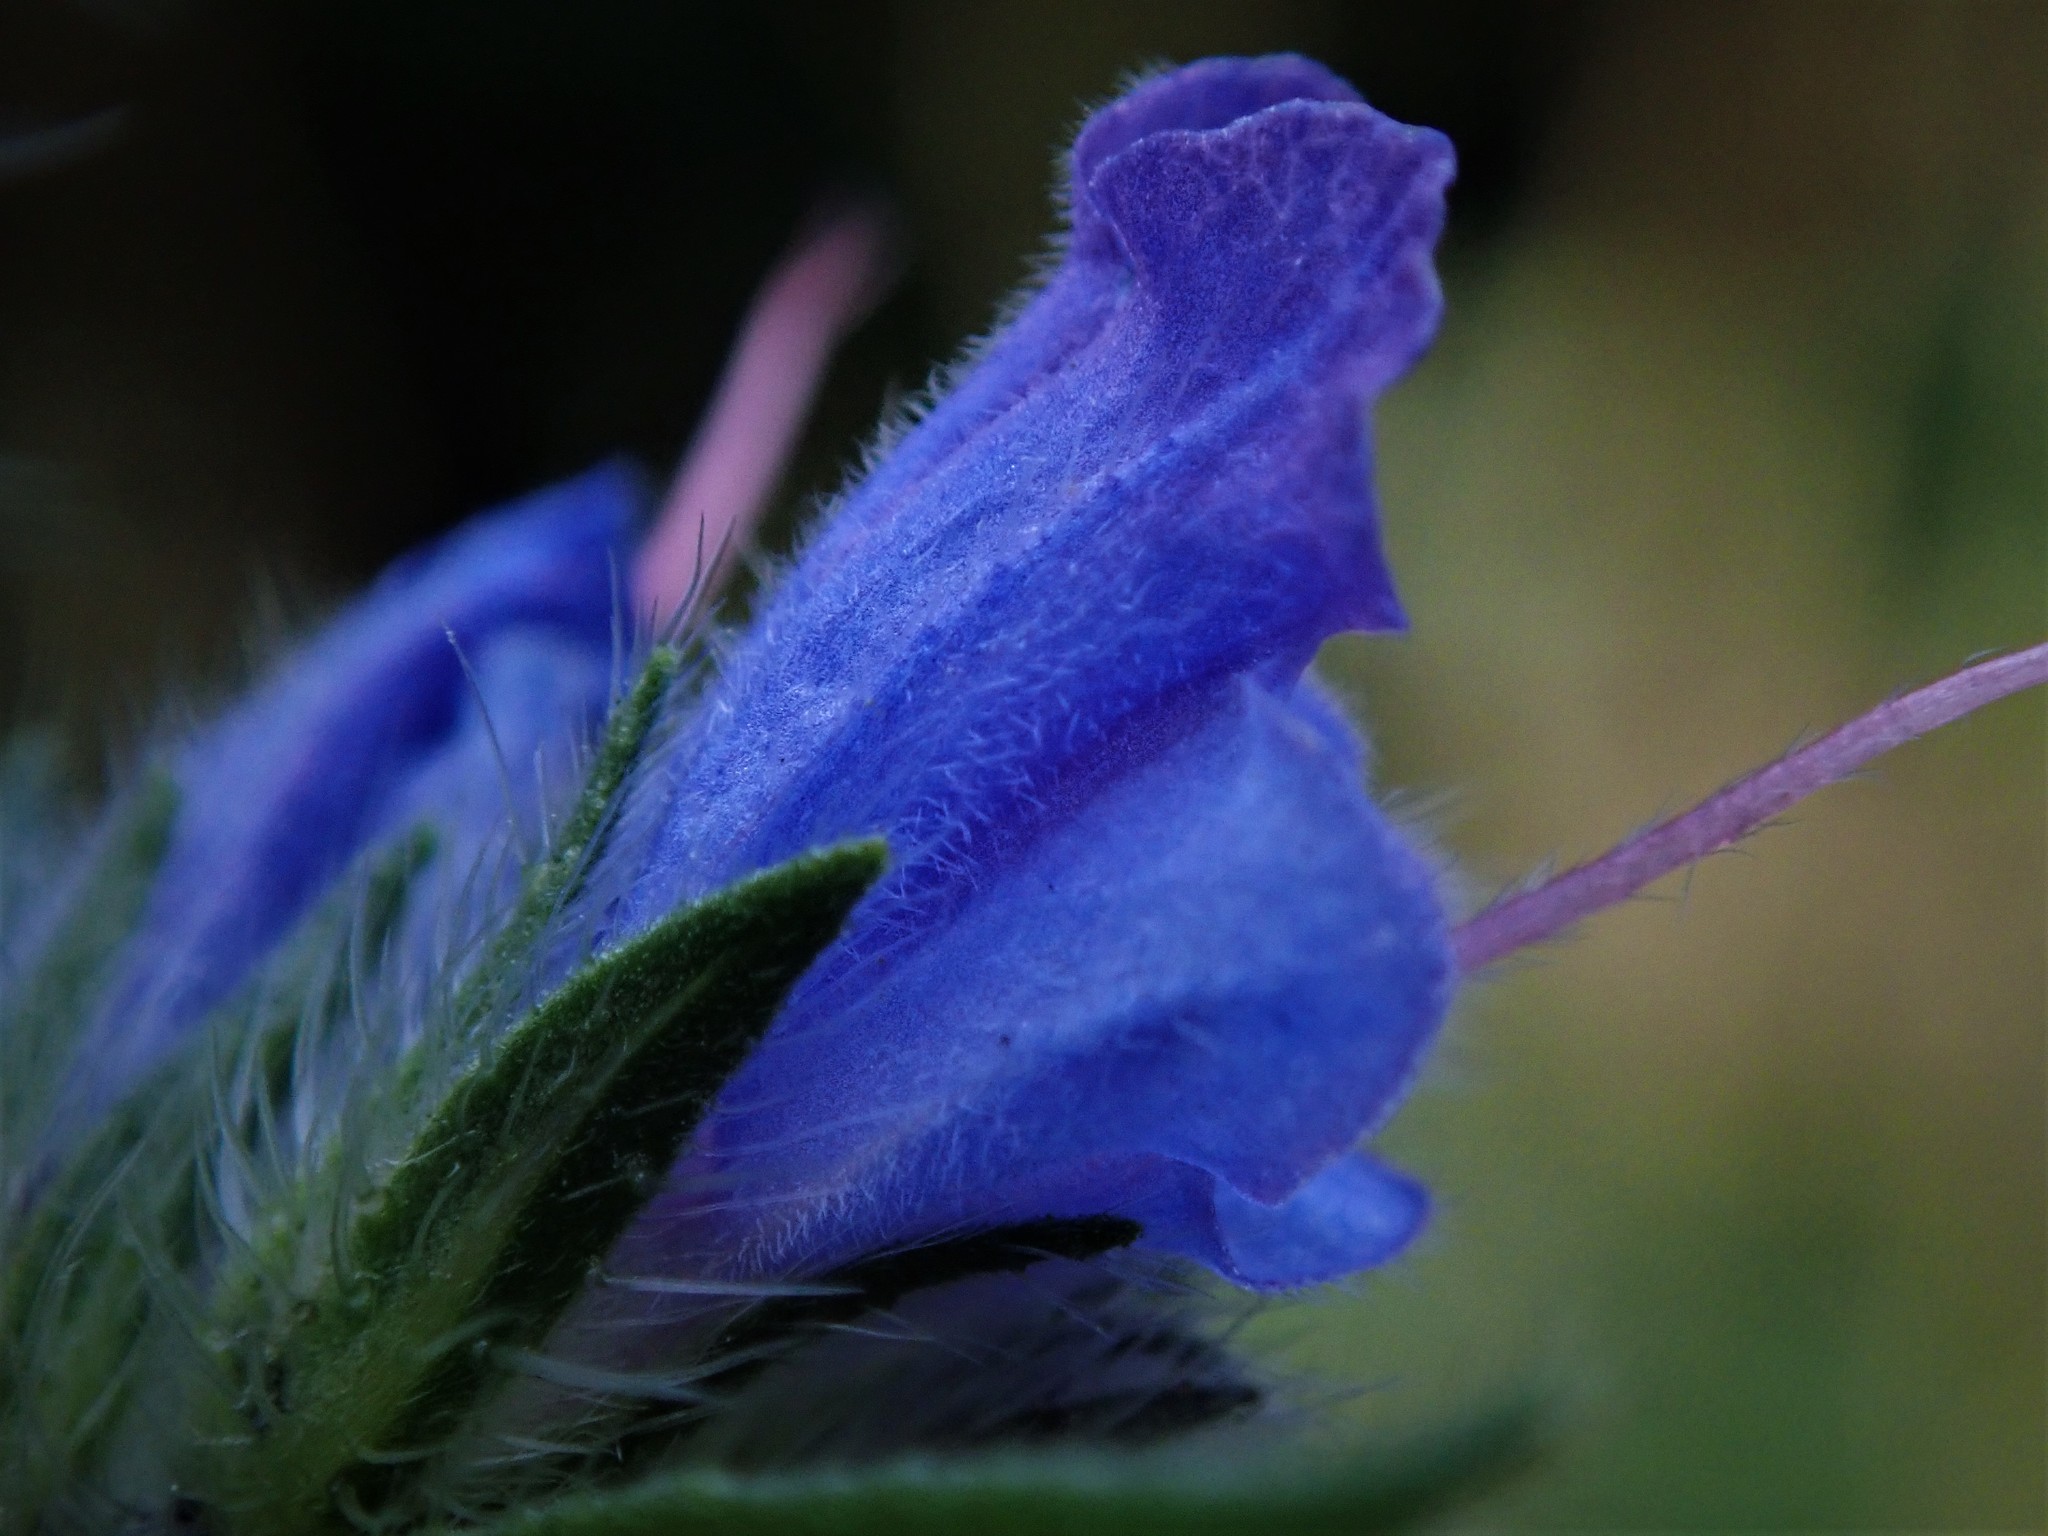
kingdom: Plantae
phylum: Tracheophyta
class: Magnoliopsida
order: Boraginales
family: Boraginaceae
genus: Echium
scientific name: Echium vulgare
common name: Common viper's bugloss
